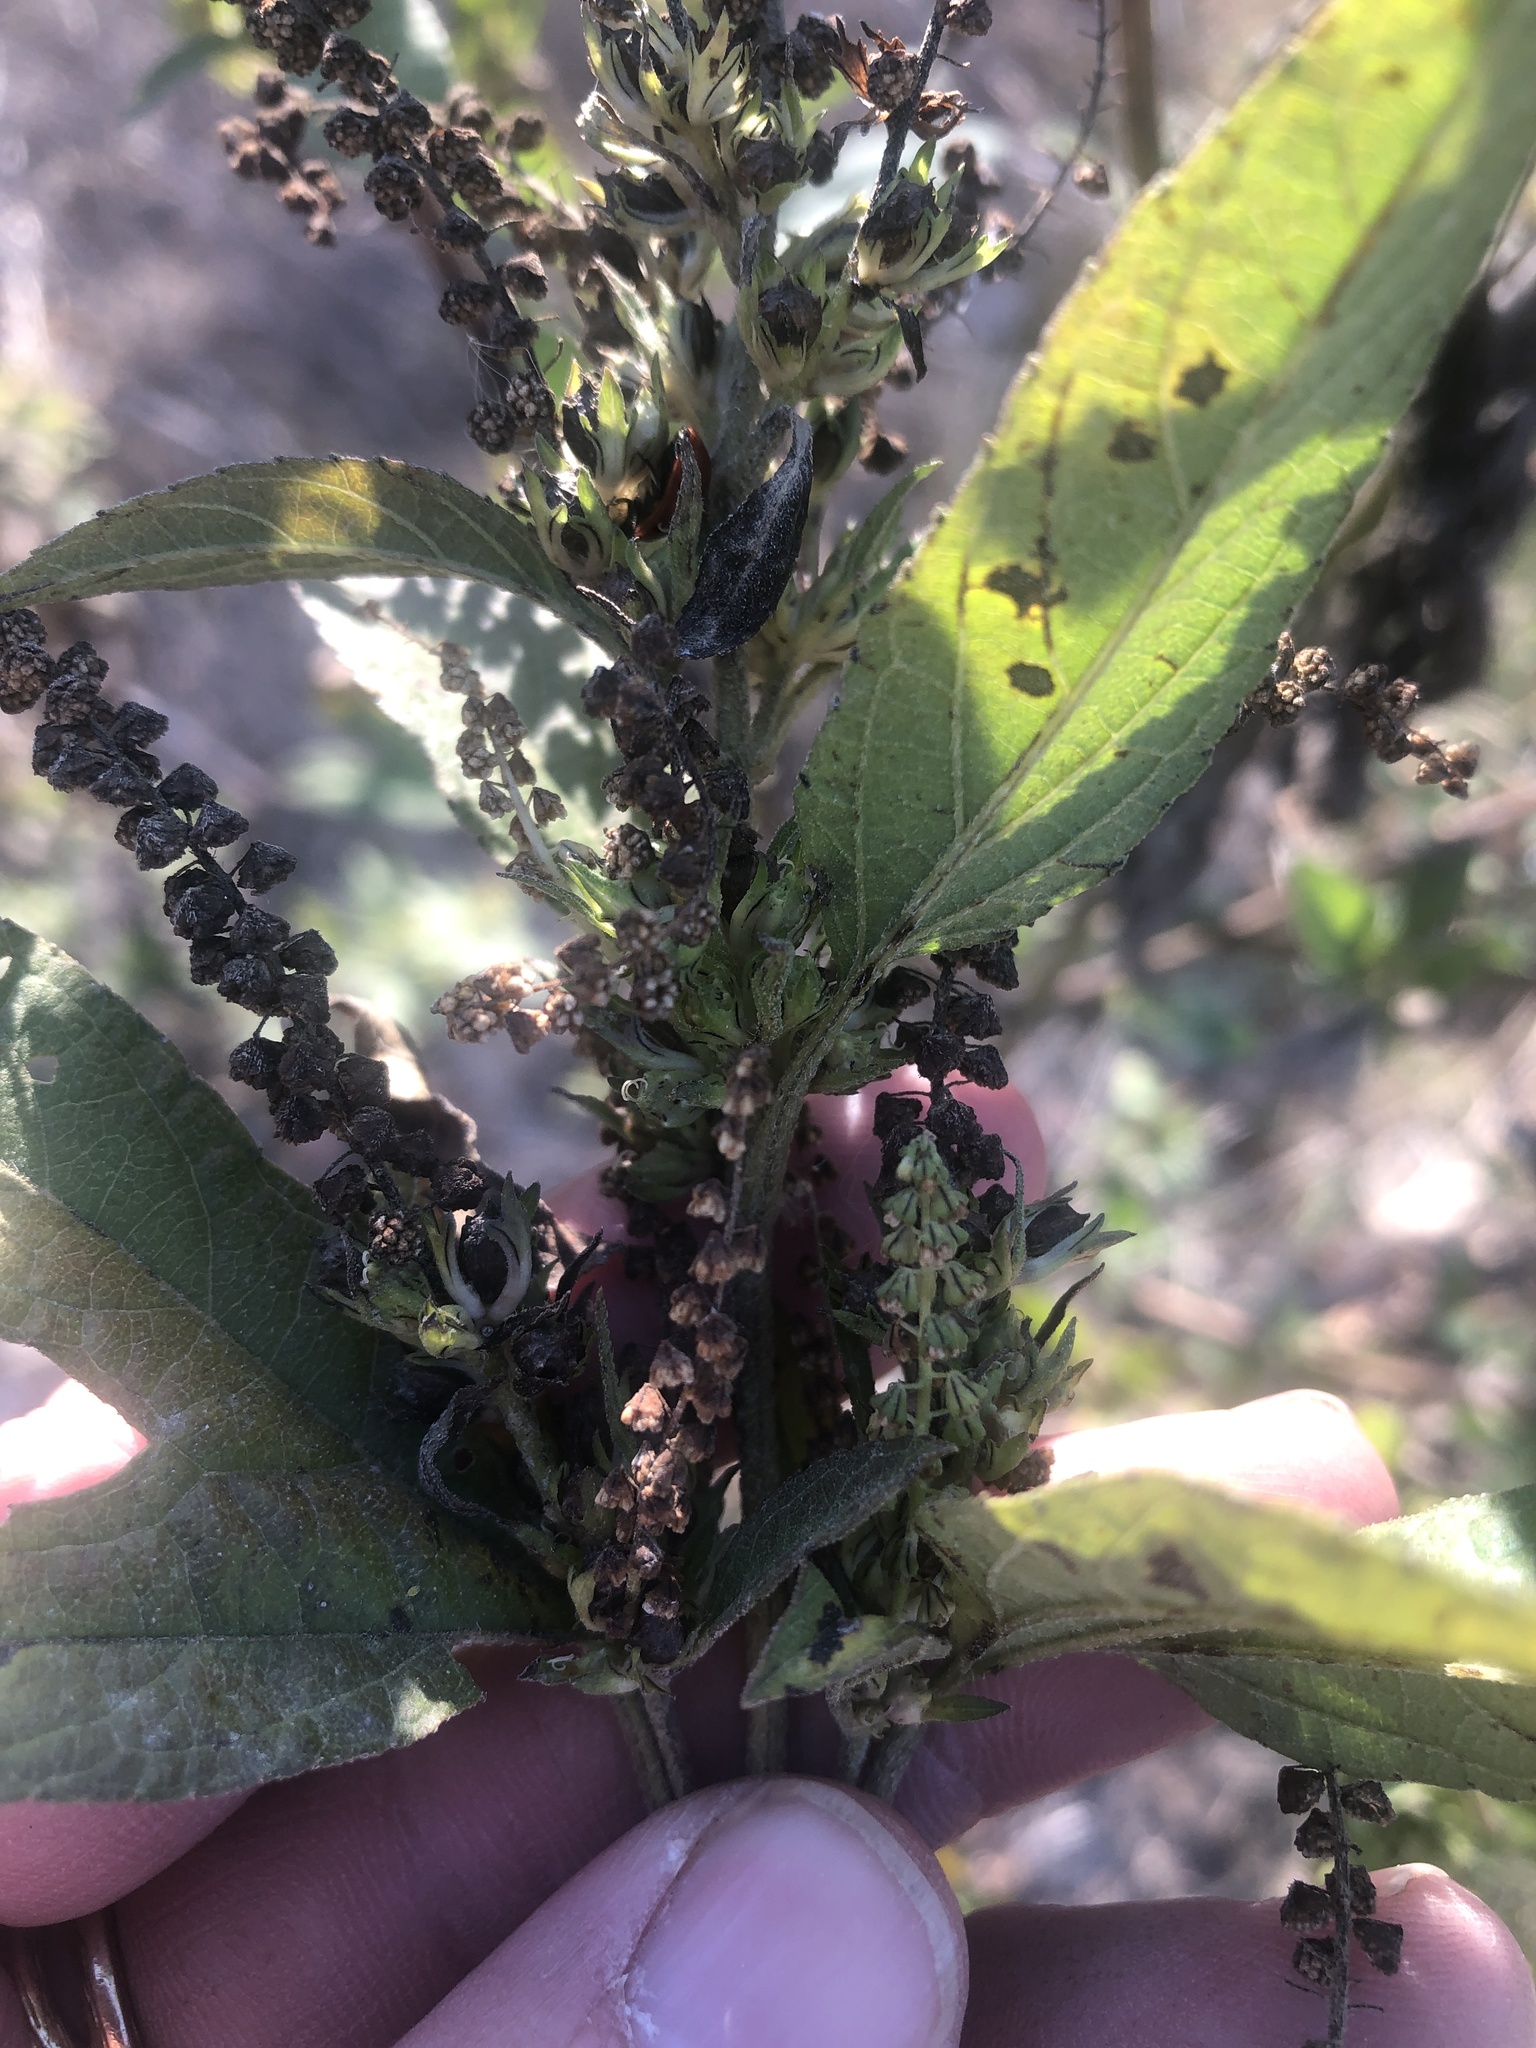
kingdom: Plantae
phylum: Tracheophyta
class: Magnoliopsida
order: Asterales
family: Asteraceae
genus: Ambrosia
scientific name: Ambrosia trifida
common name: Giant ragweed
